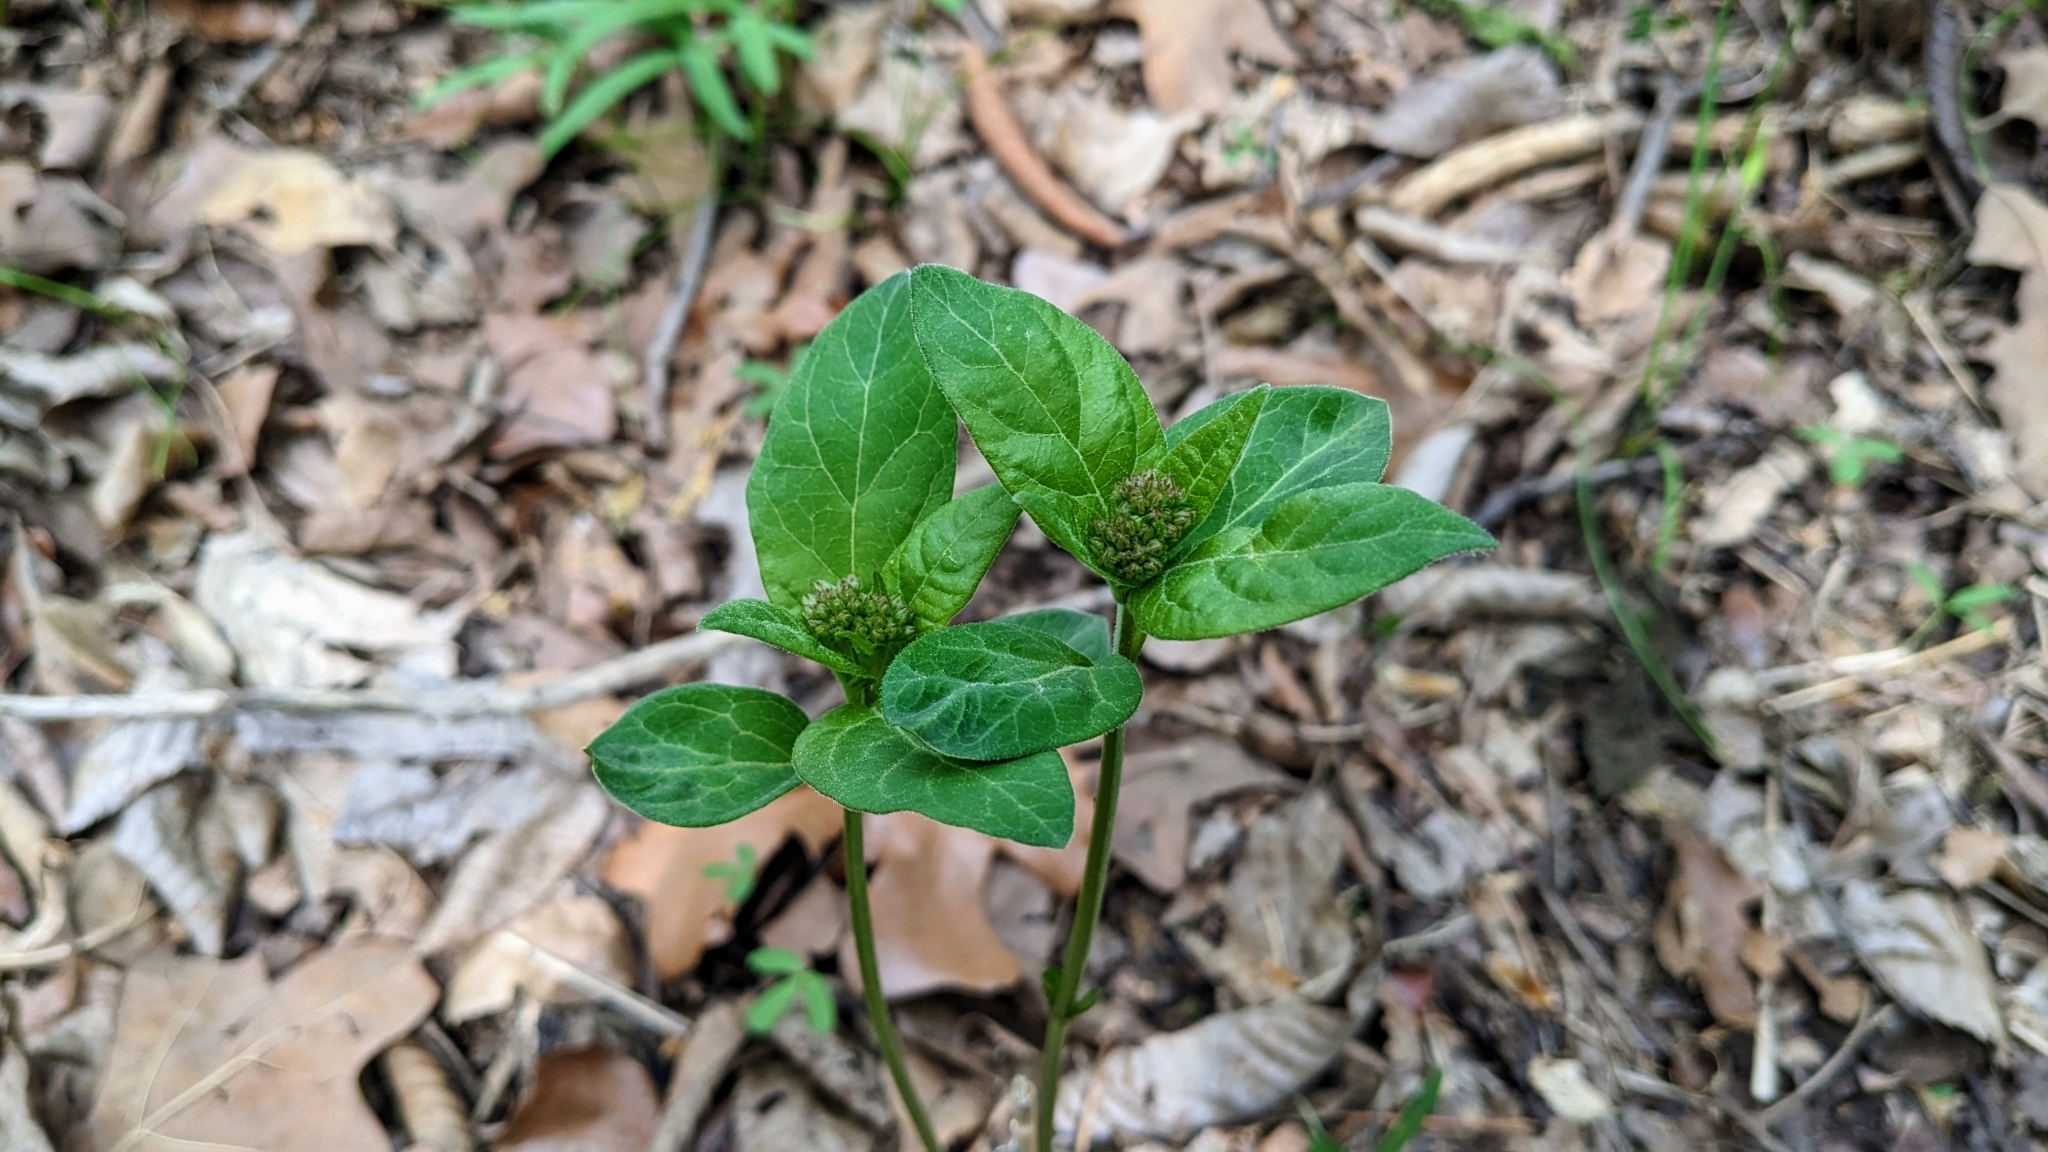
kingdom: Plantae
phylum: Tracheophyta
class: Magnoliopsida
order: Gentianales
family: Apocynaceae
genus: Asclepias
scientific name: Asclepias quadrifolia
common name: Whorled milkweed
